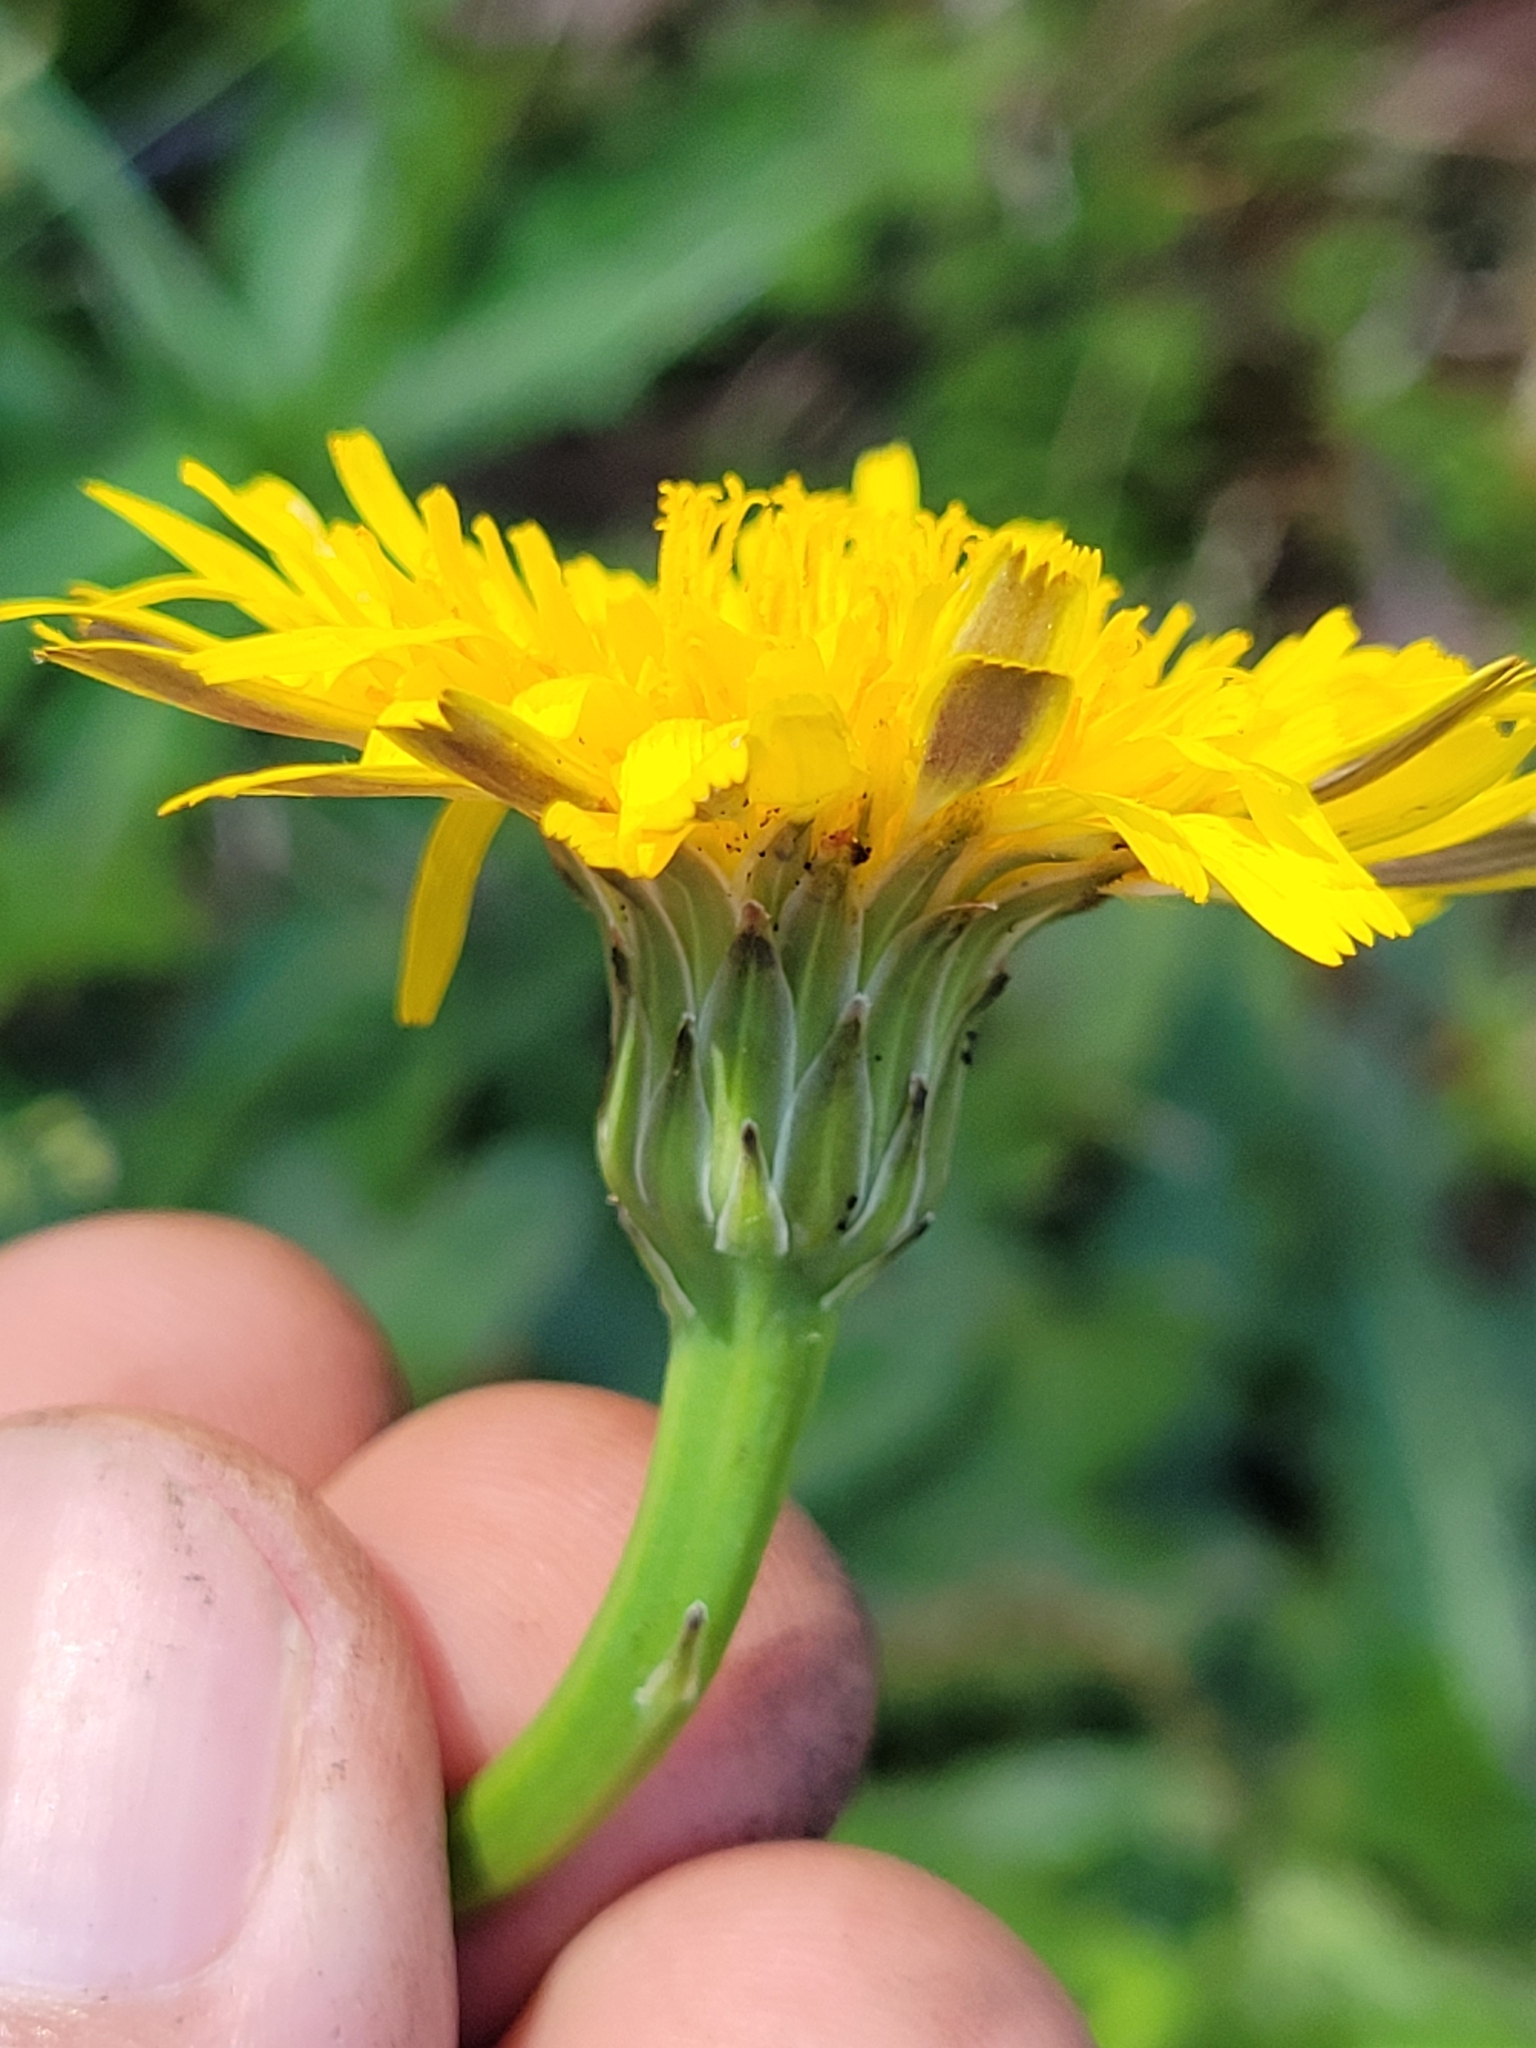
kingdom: Plantae
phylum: Tracheophyta
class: Magnoliopsida
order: Asterales
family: Asteraceae
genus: Hypochaeris
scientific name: Hypochaeris radicata
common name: Flatweed
